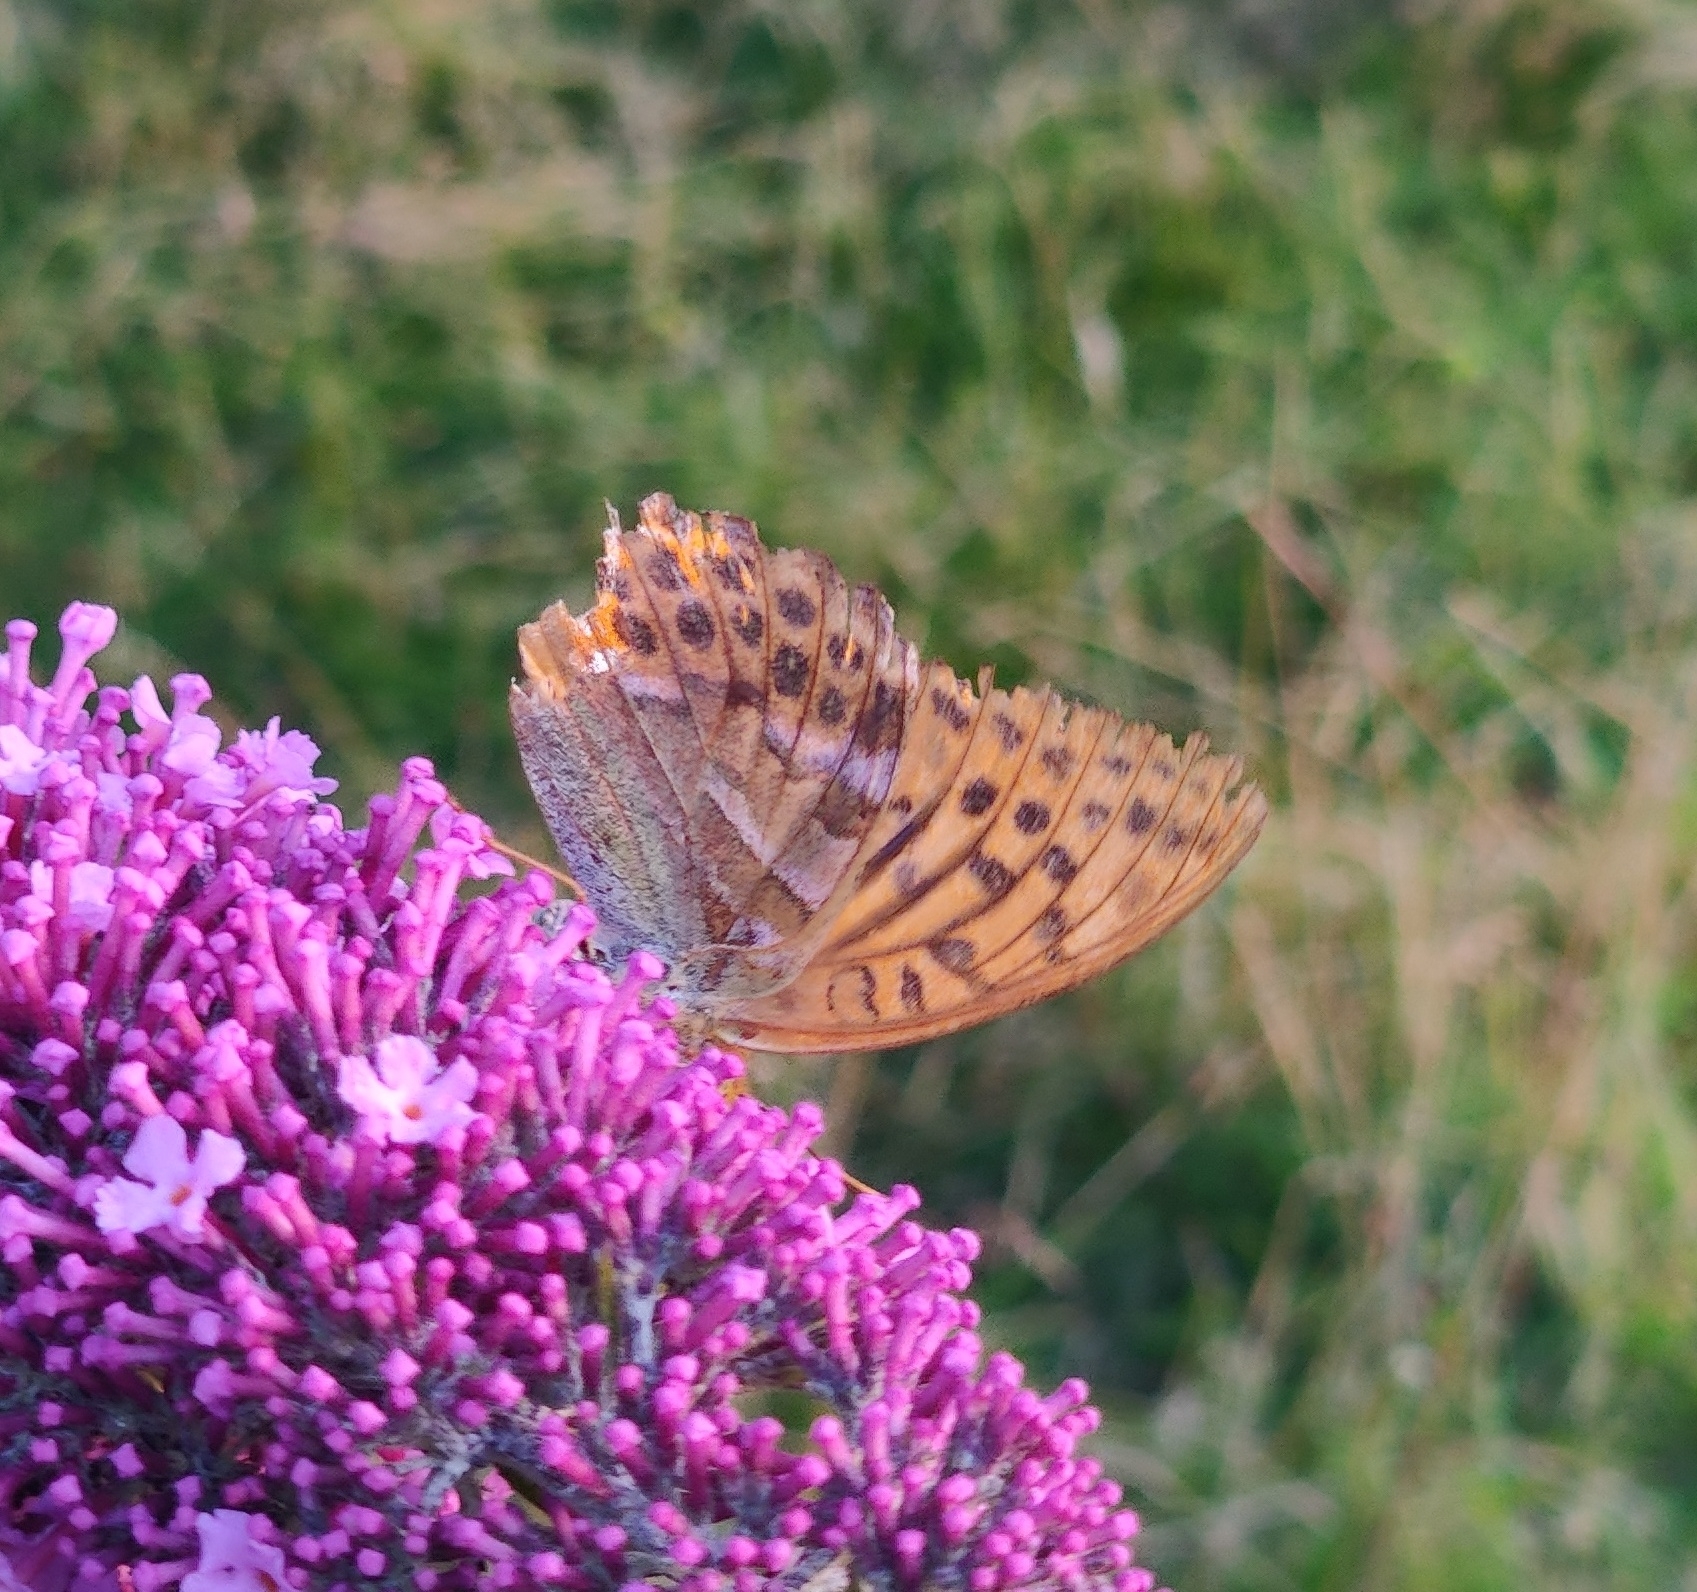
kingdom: Animalia
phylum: Arthropoda
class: Insecta
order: Lepidoptera
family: Nymphalidae
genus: Argynnis
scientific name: Argynnis paphia
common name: Silver-washed fritillary
